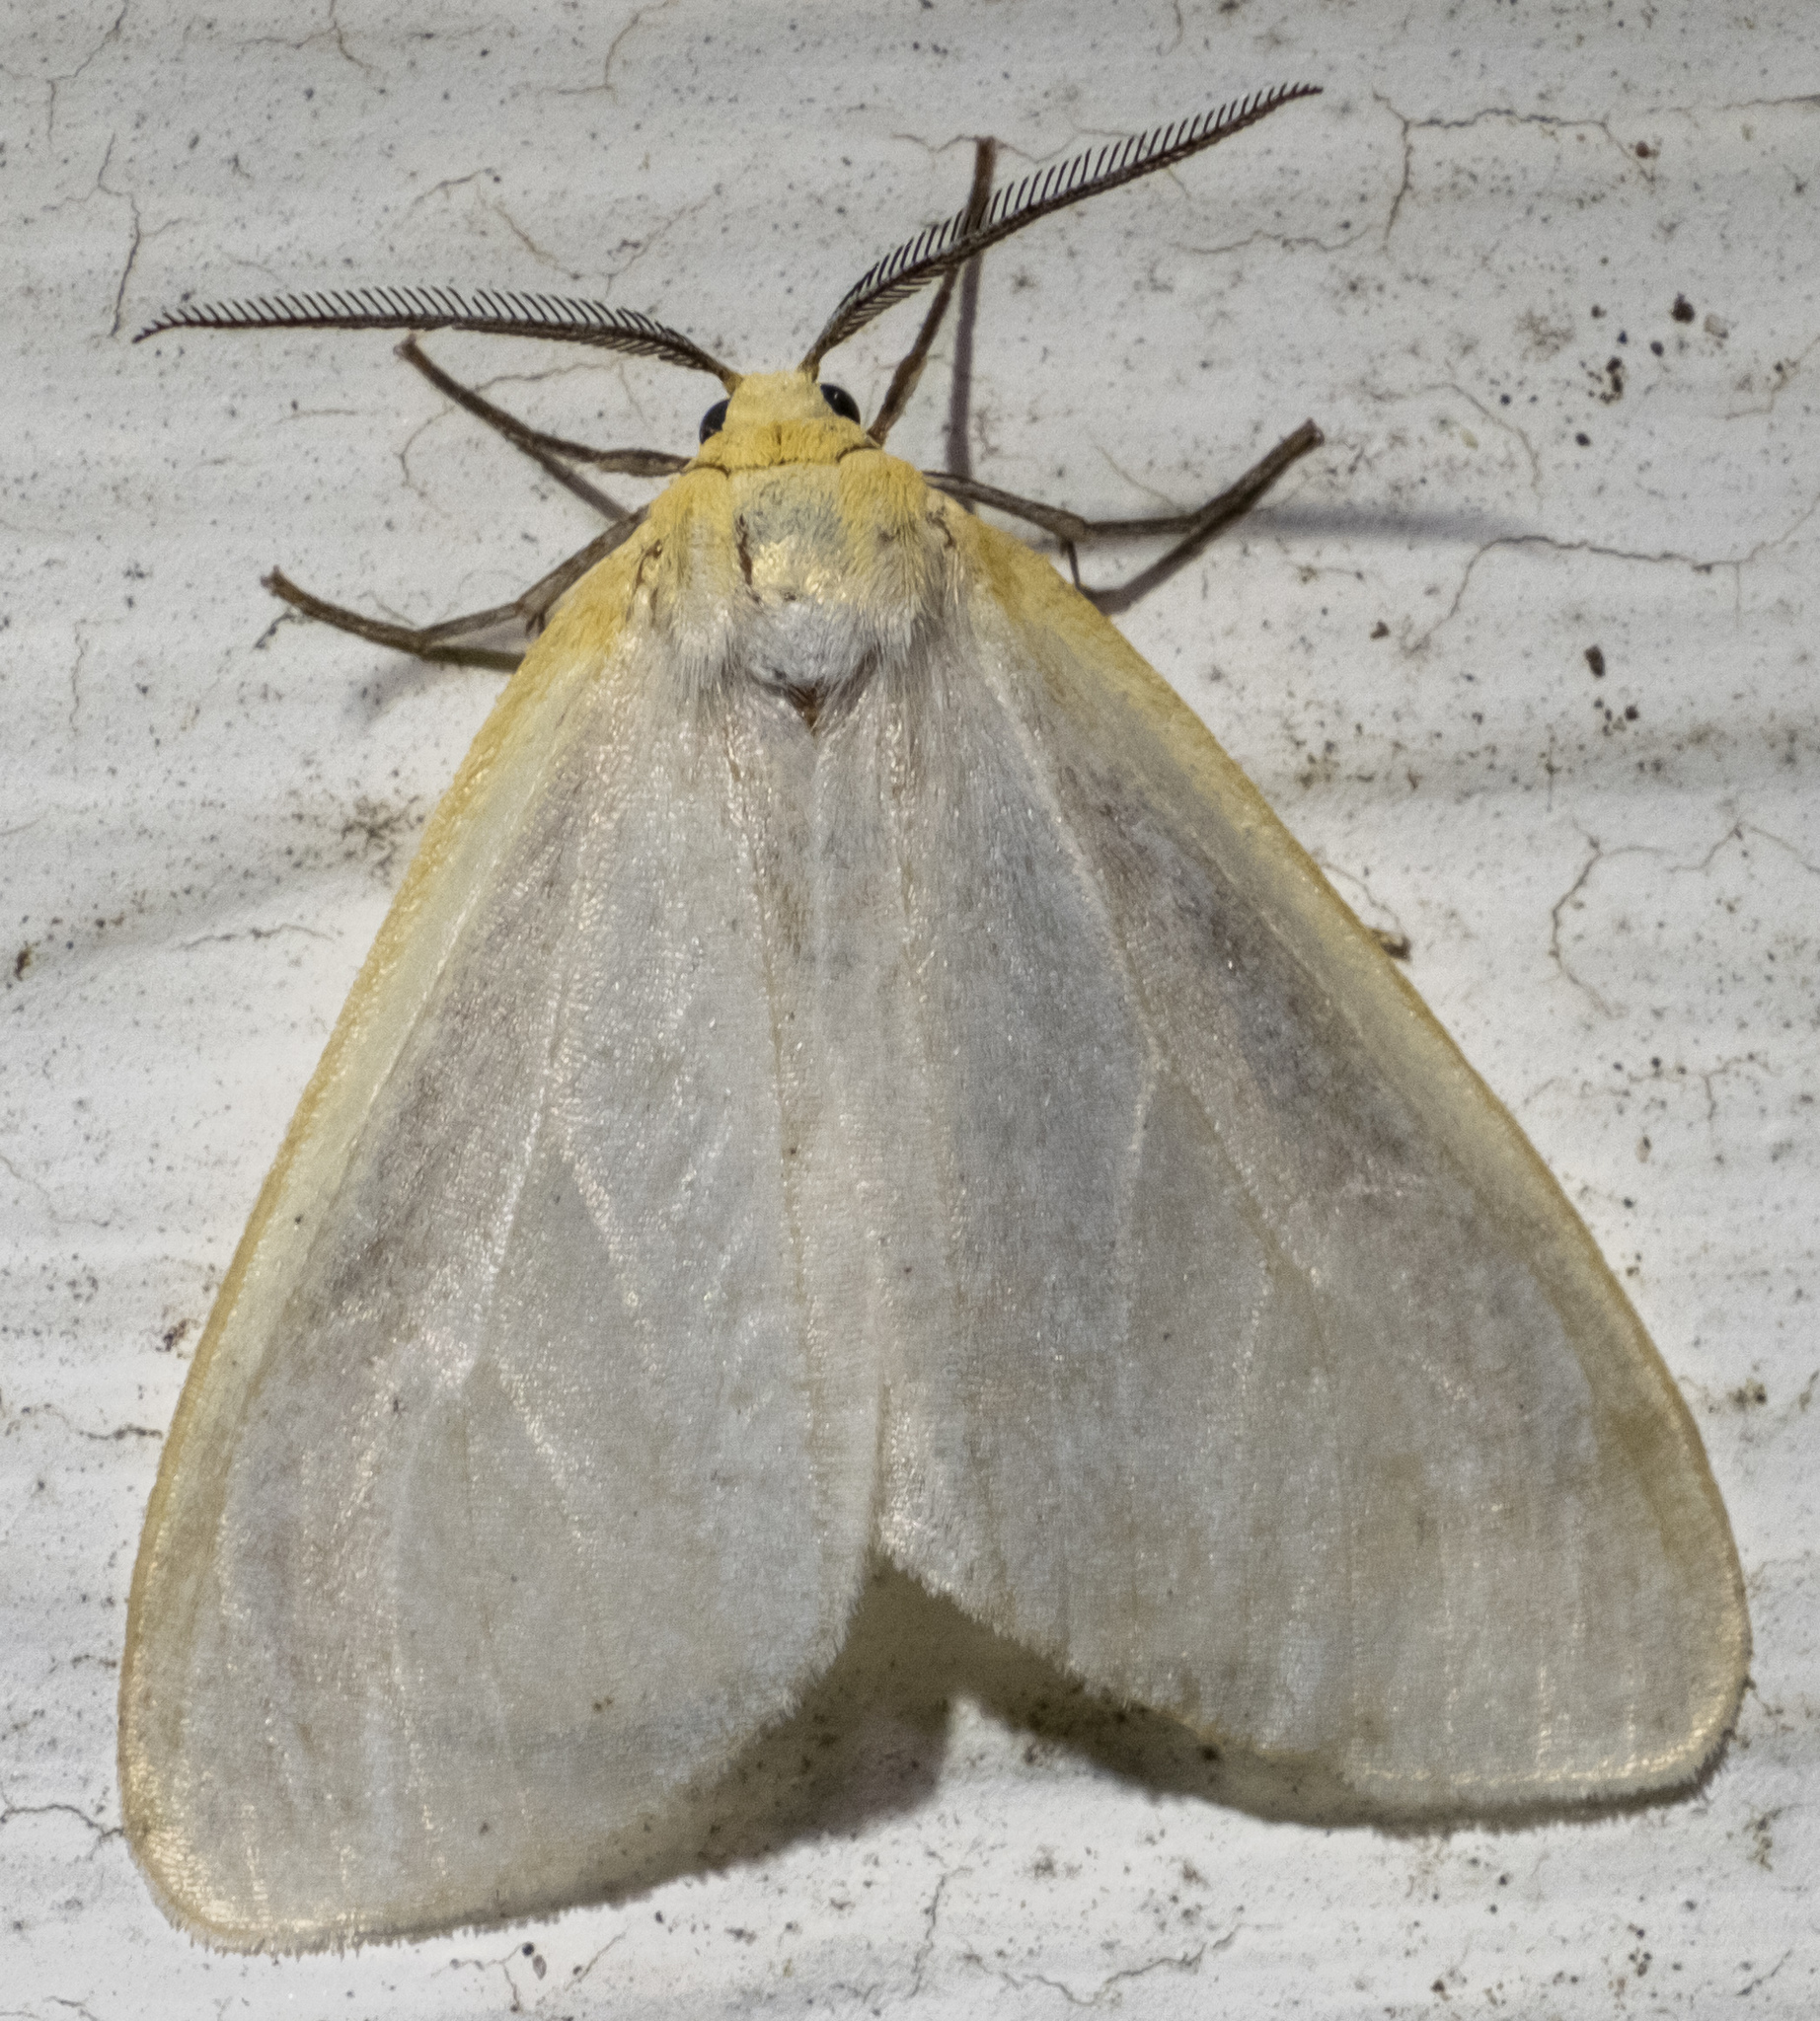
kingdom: Animalia
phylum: Arthropoda
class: Insecta
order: Lepidoptera
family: Erebidae
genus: Cycnia
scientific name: Cycnia tenera
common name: Delicate cycnia moth
